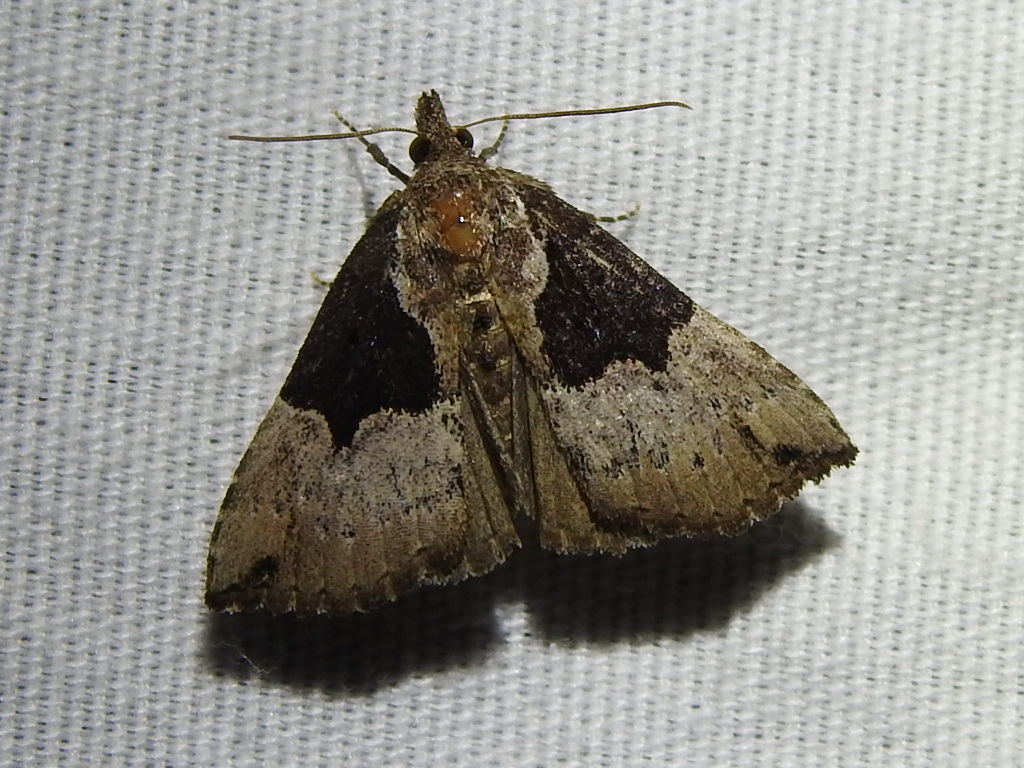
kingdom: Animalia
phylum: Arthropoda
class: Insecta
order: Lepidoptera
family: Erebidae
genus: Hypena
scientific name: Hypena bijugalis
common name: Dimorphic bomolocha moth
